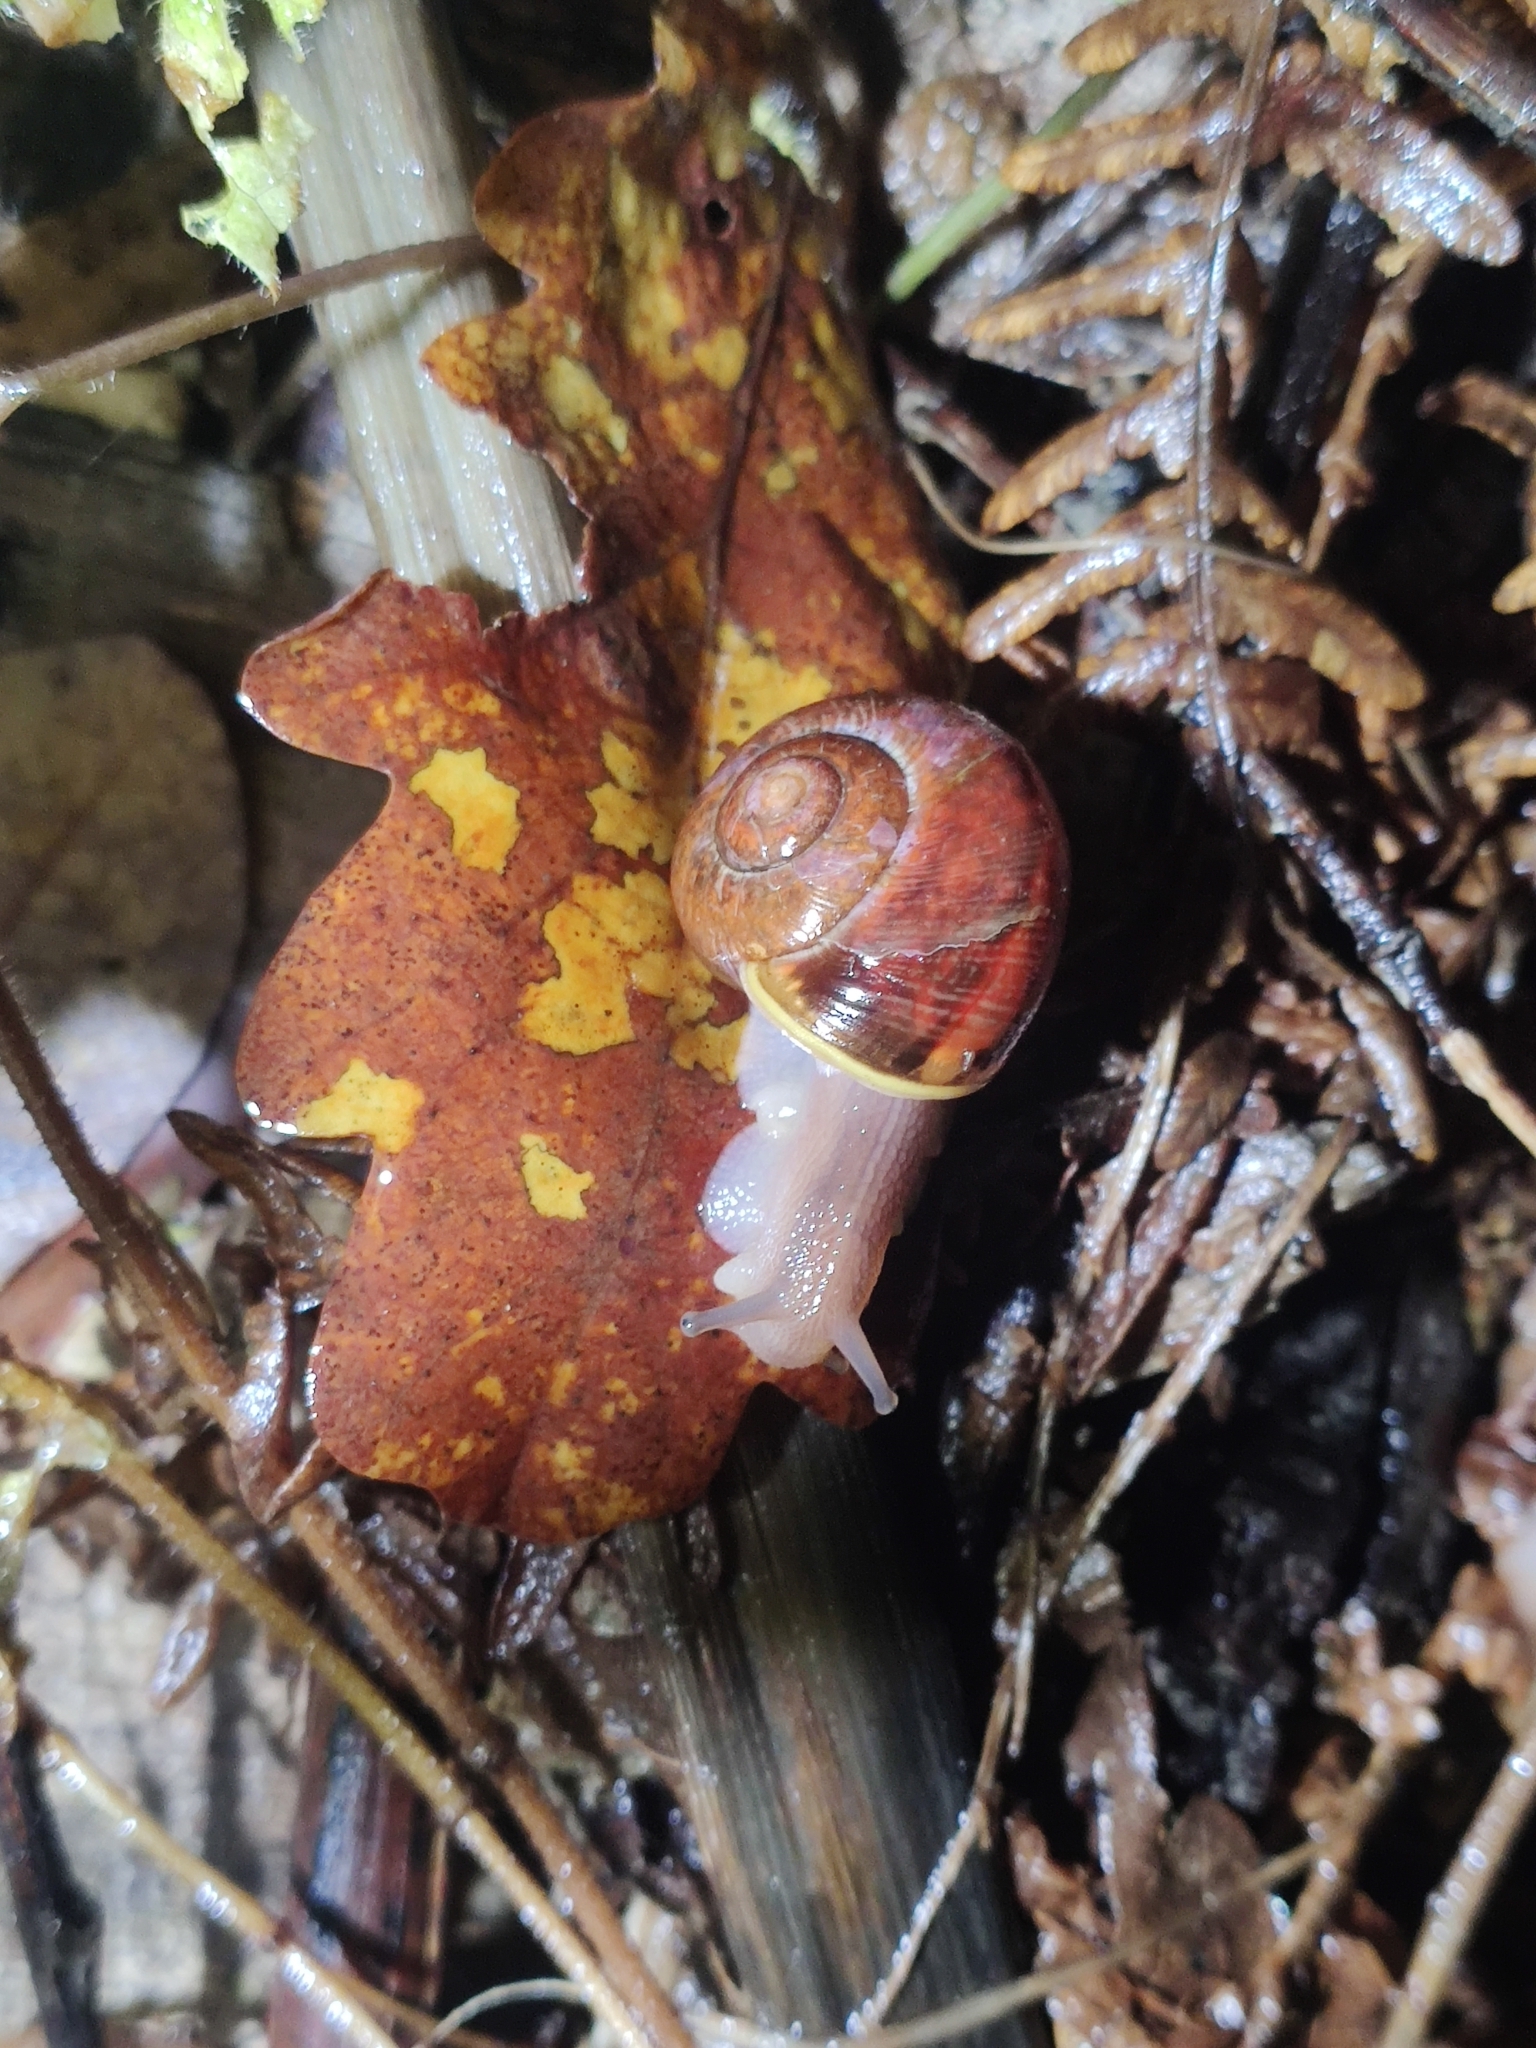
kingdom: Animalia
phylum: Mollusca
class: Gastropoda
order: Stylommatophora
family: Helicidae
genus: Cepaea
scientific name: Cepaea nemoralis
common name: Grovesnail
